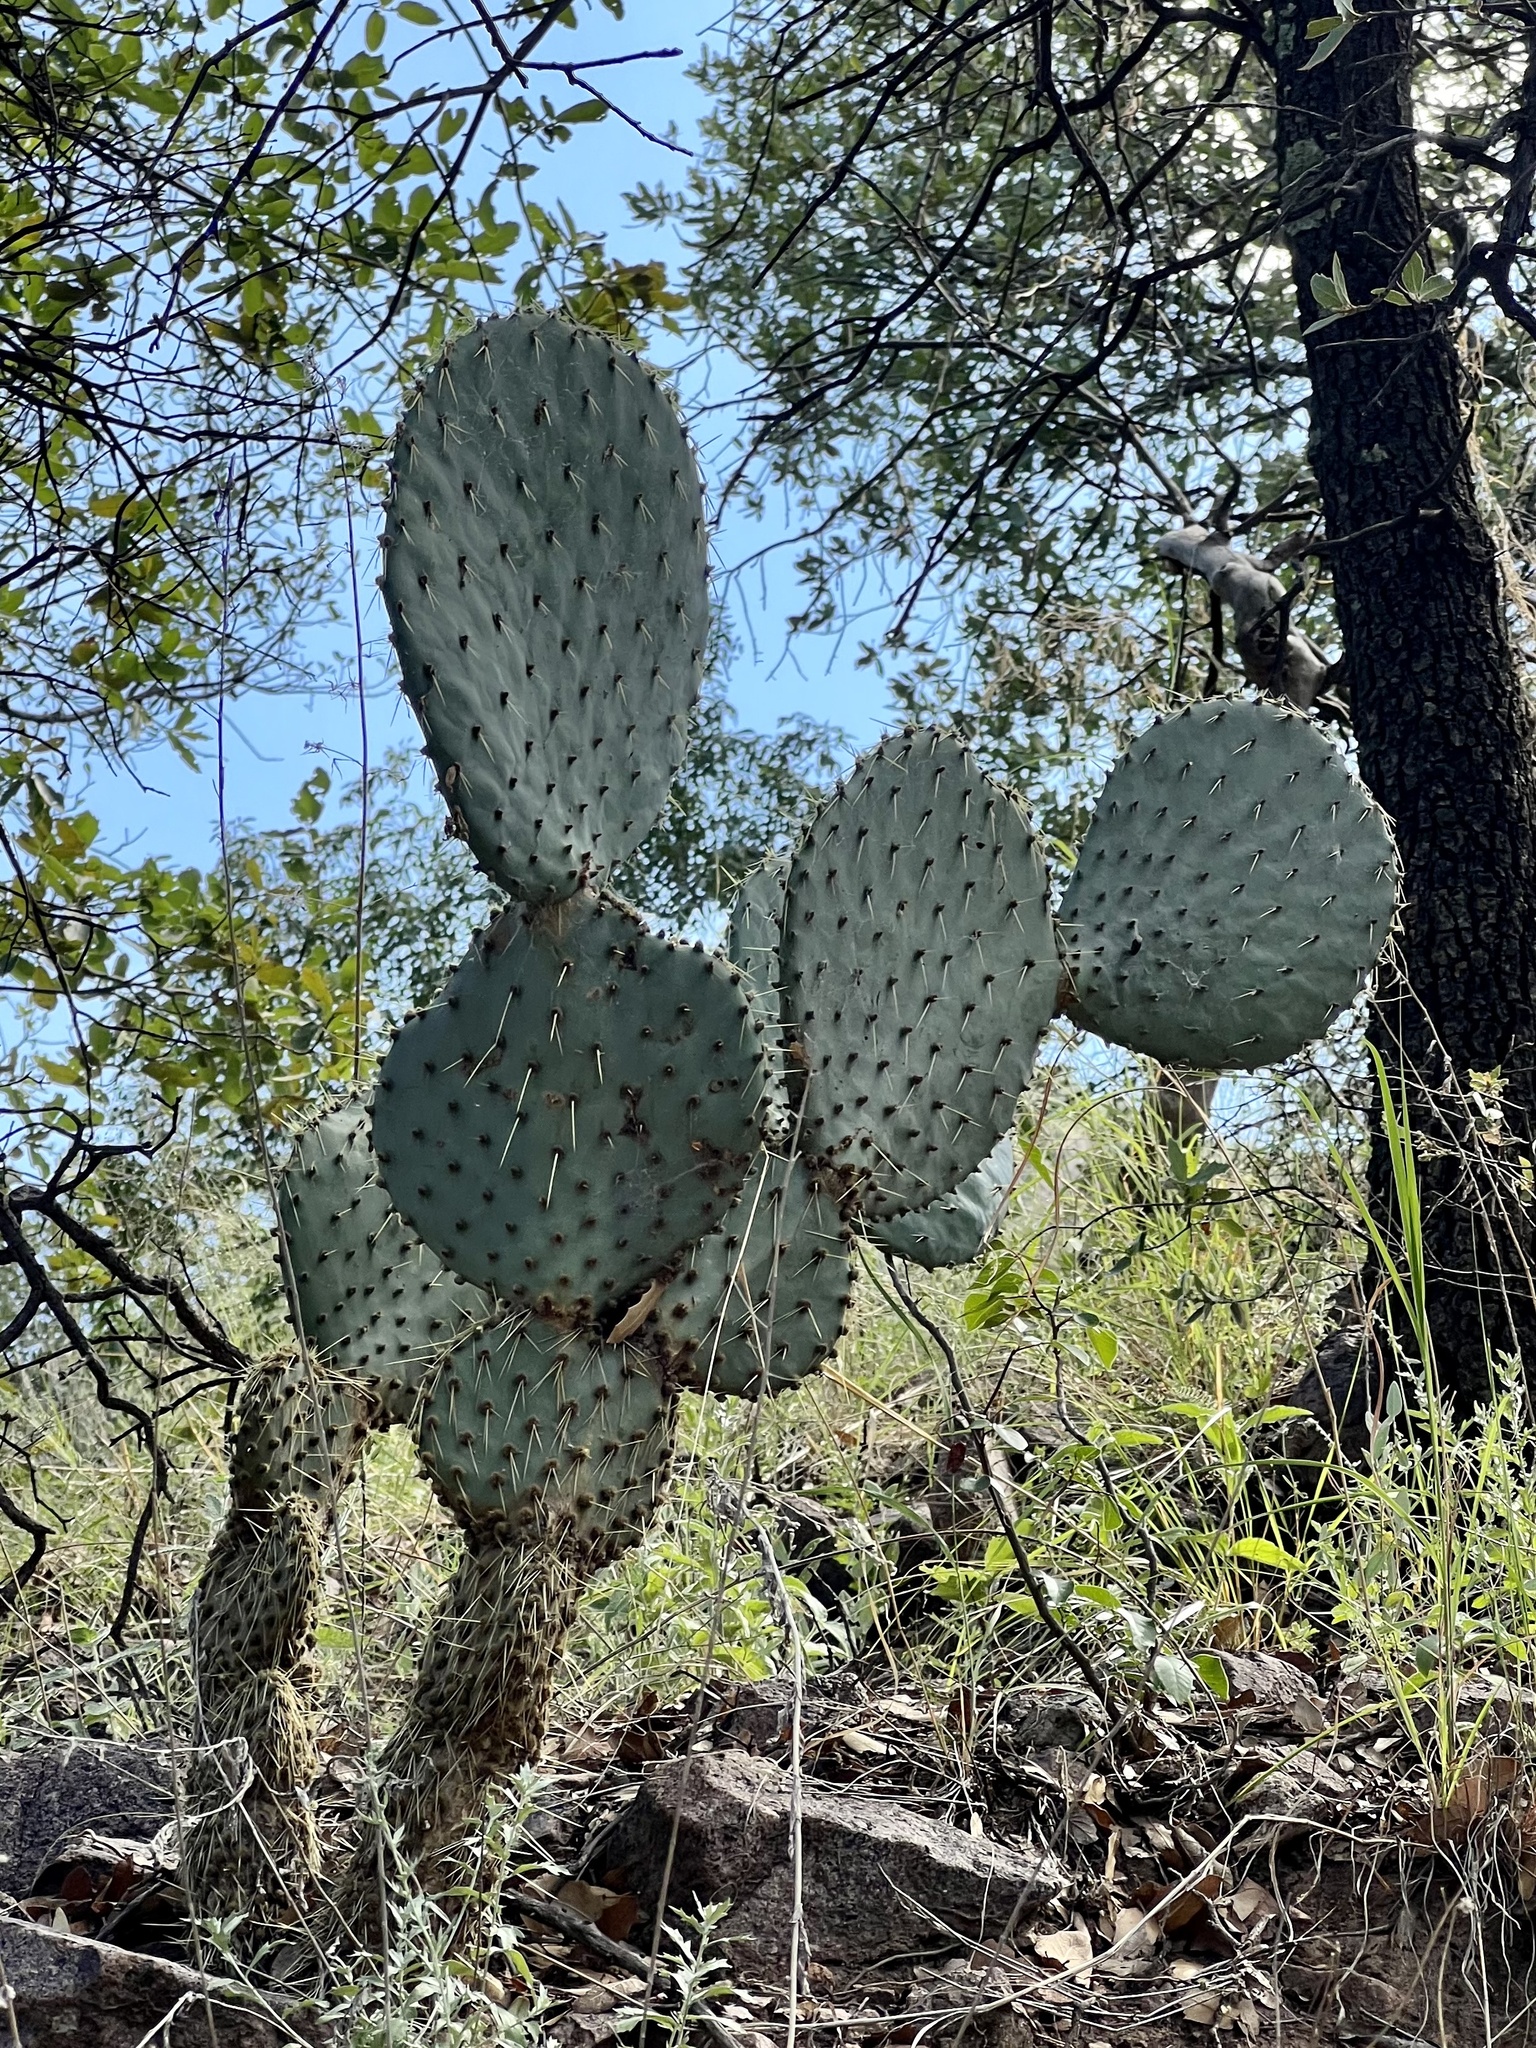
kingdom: Plantae
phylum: Tracheophyta
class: Magnoliopsida
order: Caryophyllales
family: Cactaceae
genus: Opuntia
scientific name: Opuntia chlorotica
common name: Dollar-joint prickly-pear
